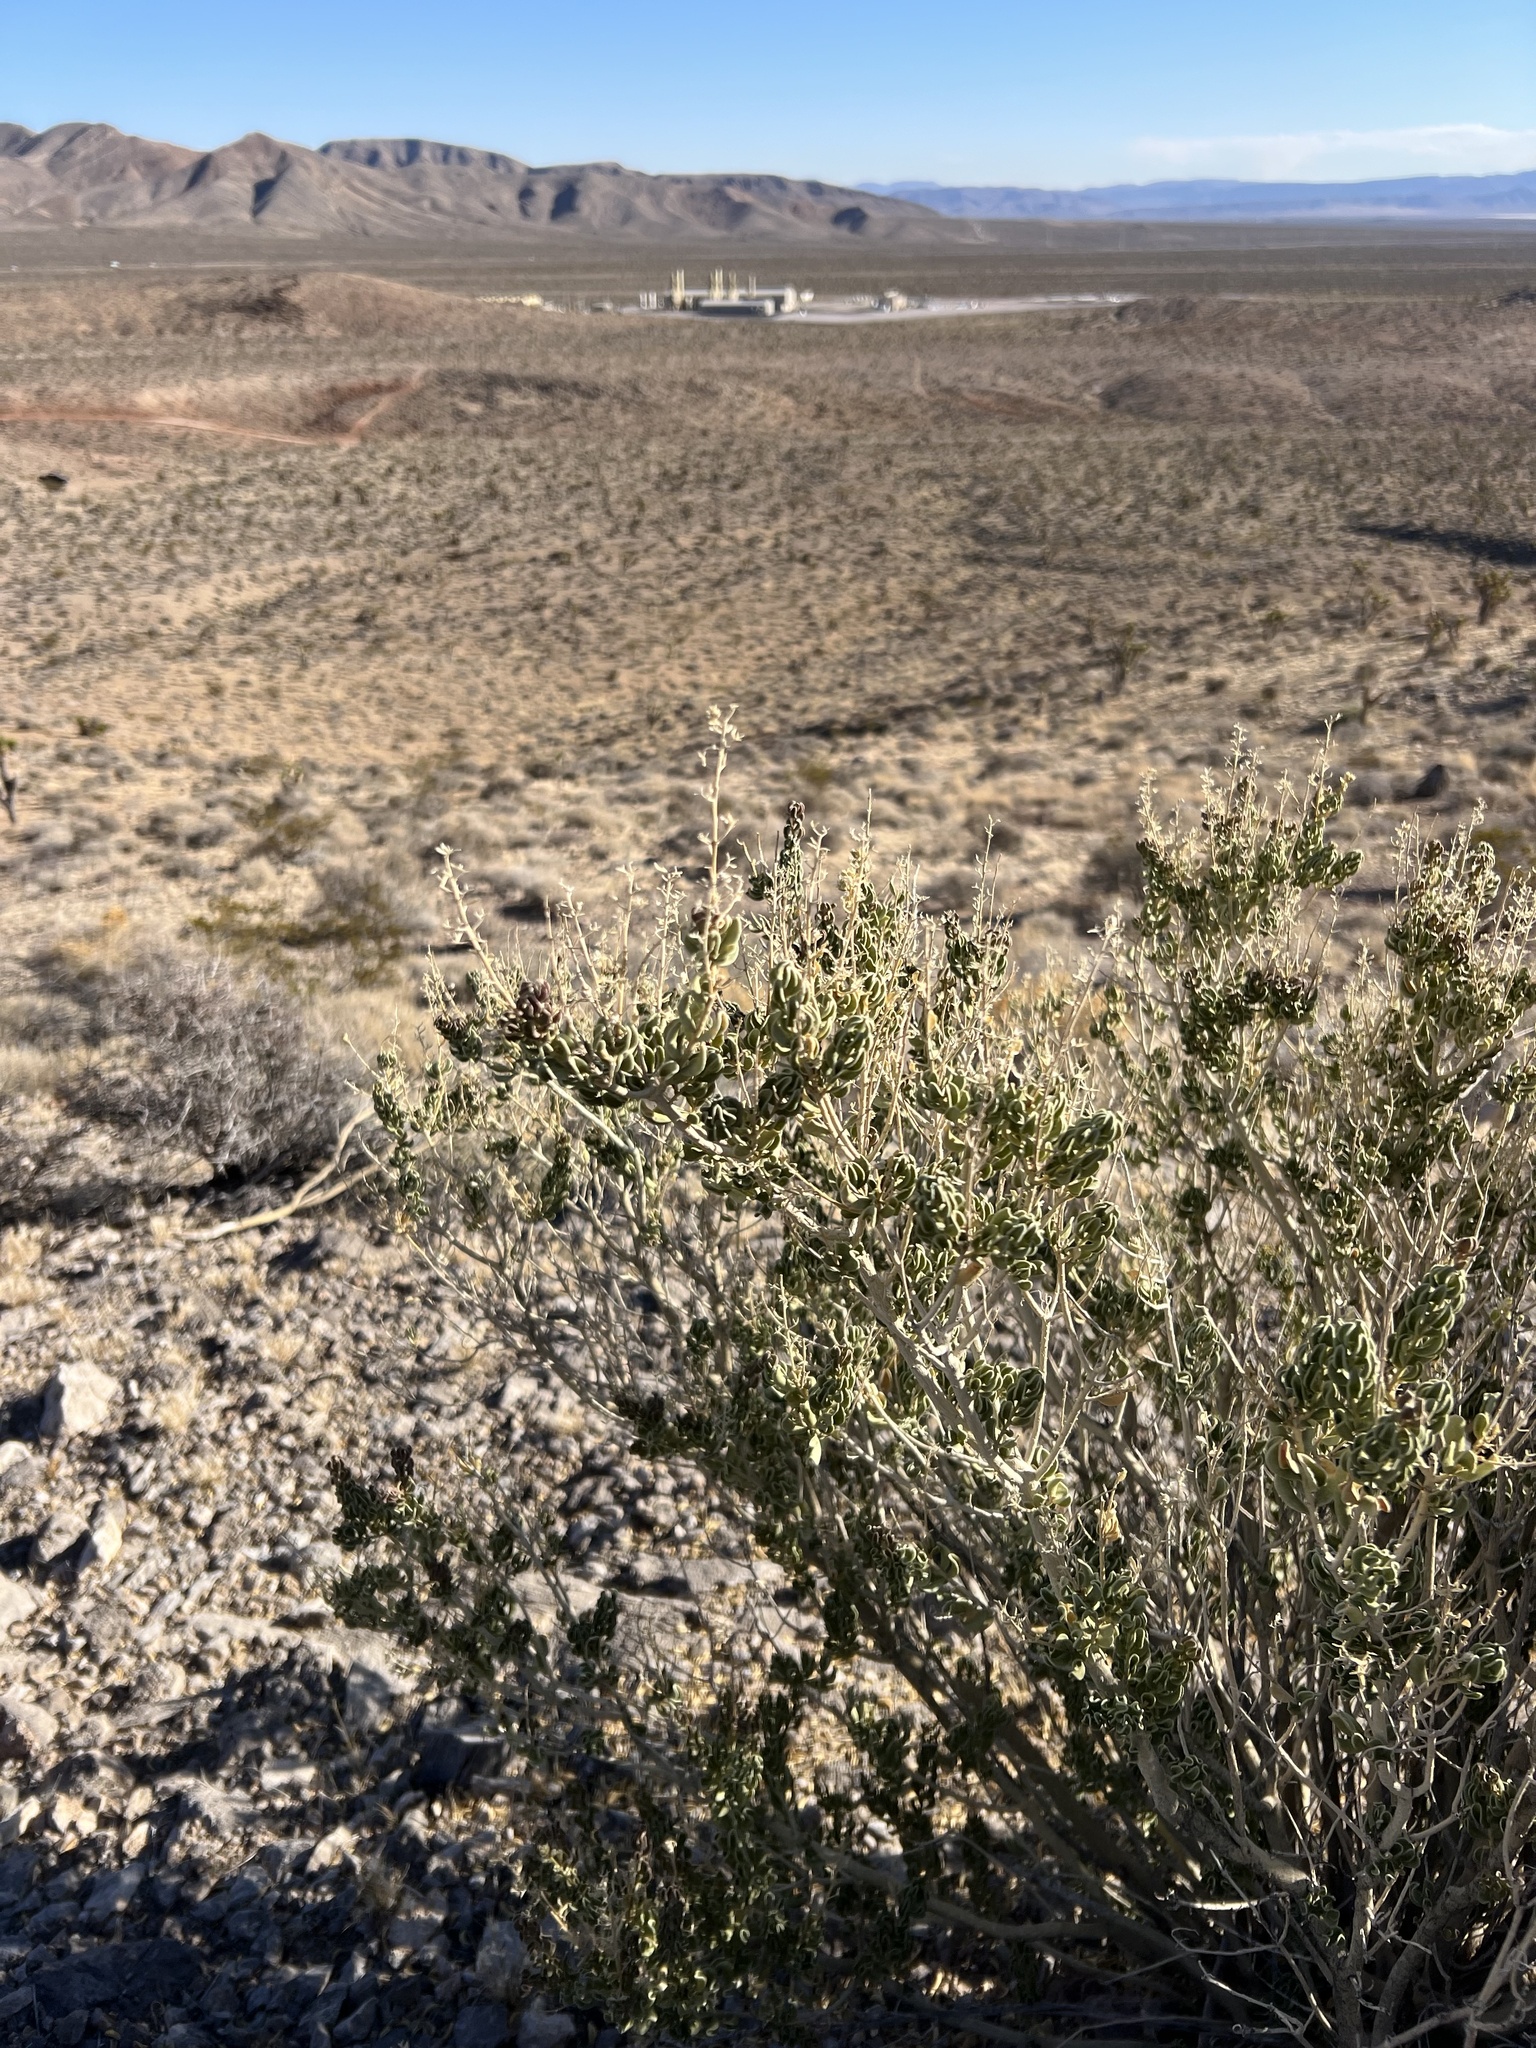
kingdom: Plantae
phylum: Tracheophyta
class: Magnoliopsida
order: Celastrales
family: Celastraceae
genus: Mortonia
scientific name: Mortonia utahensis
